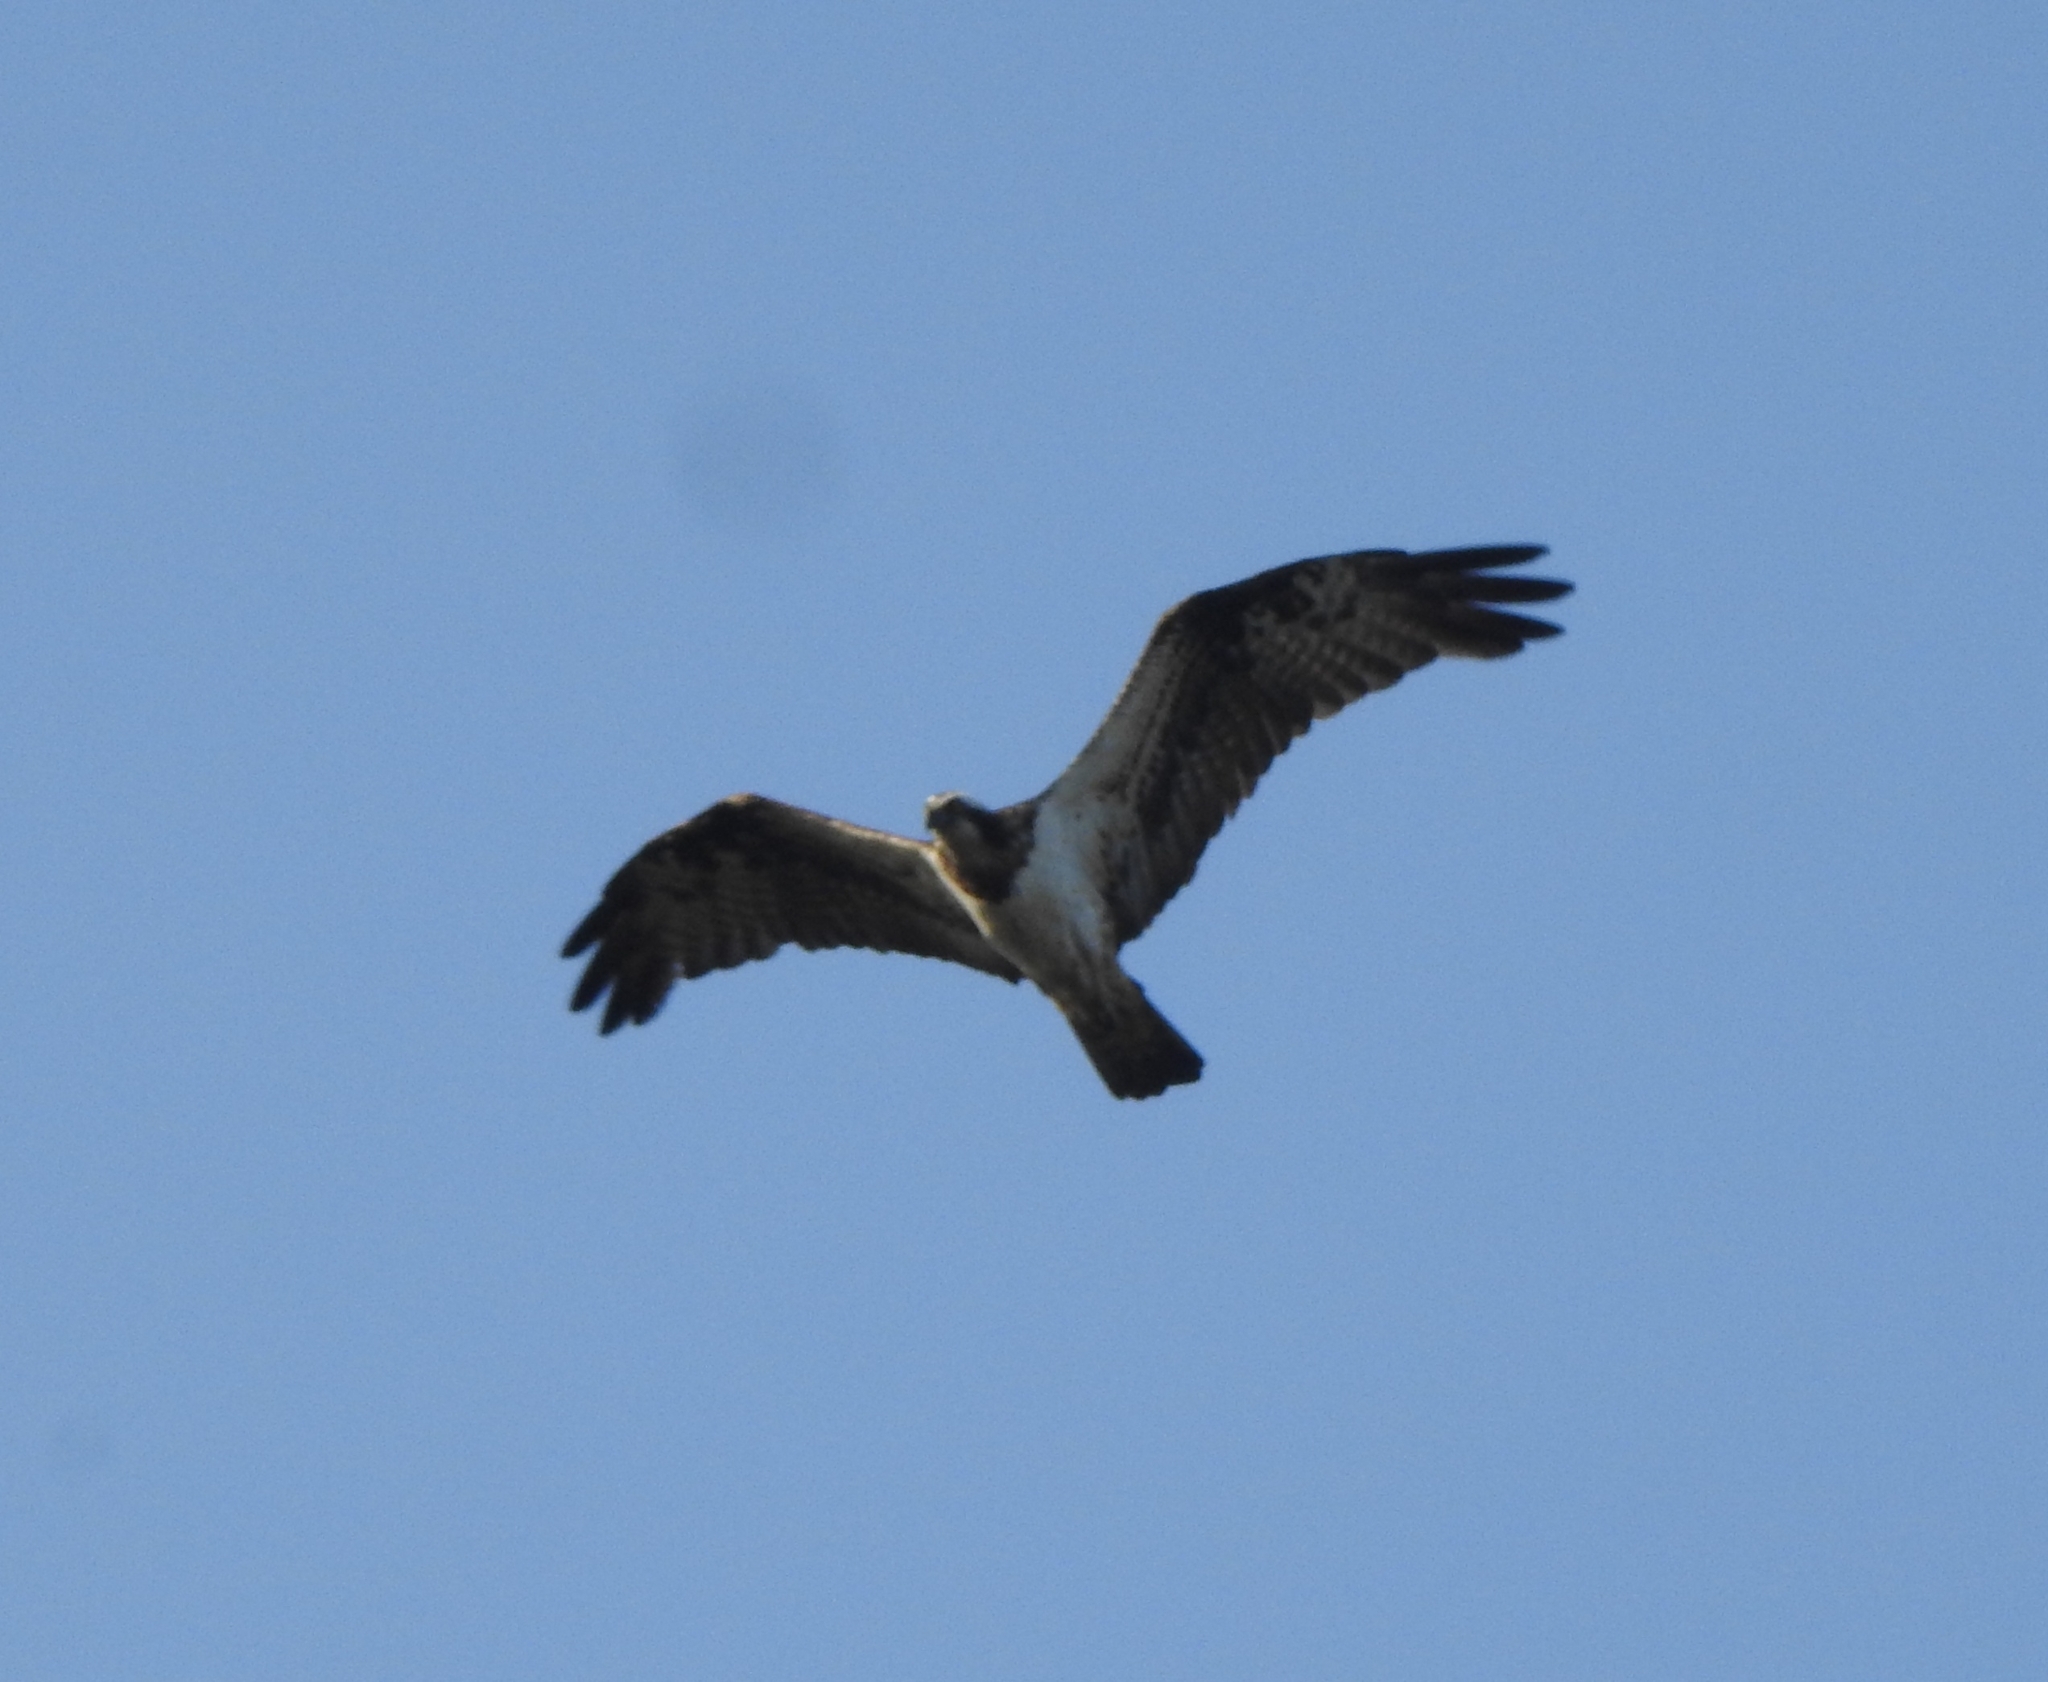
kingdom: Animalia
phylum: Chordata
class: Aves
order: Accipitriformes
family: Pandionidae
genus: Pandion
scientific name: Pandion haliaetus
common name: Osprey
